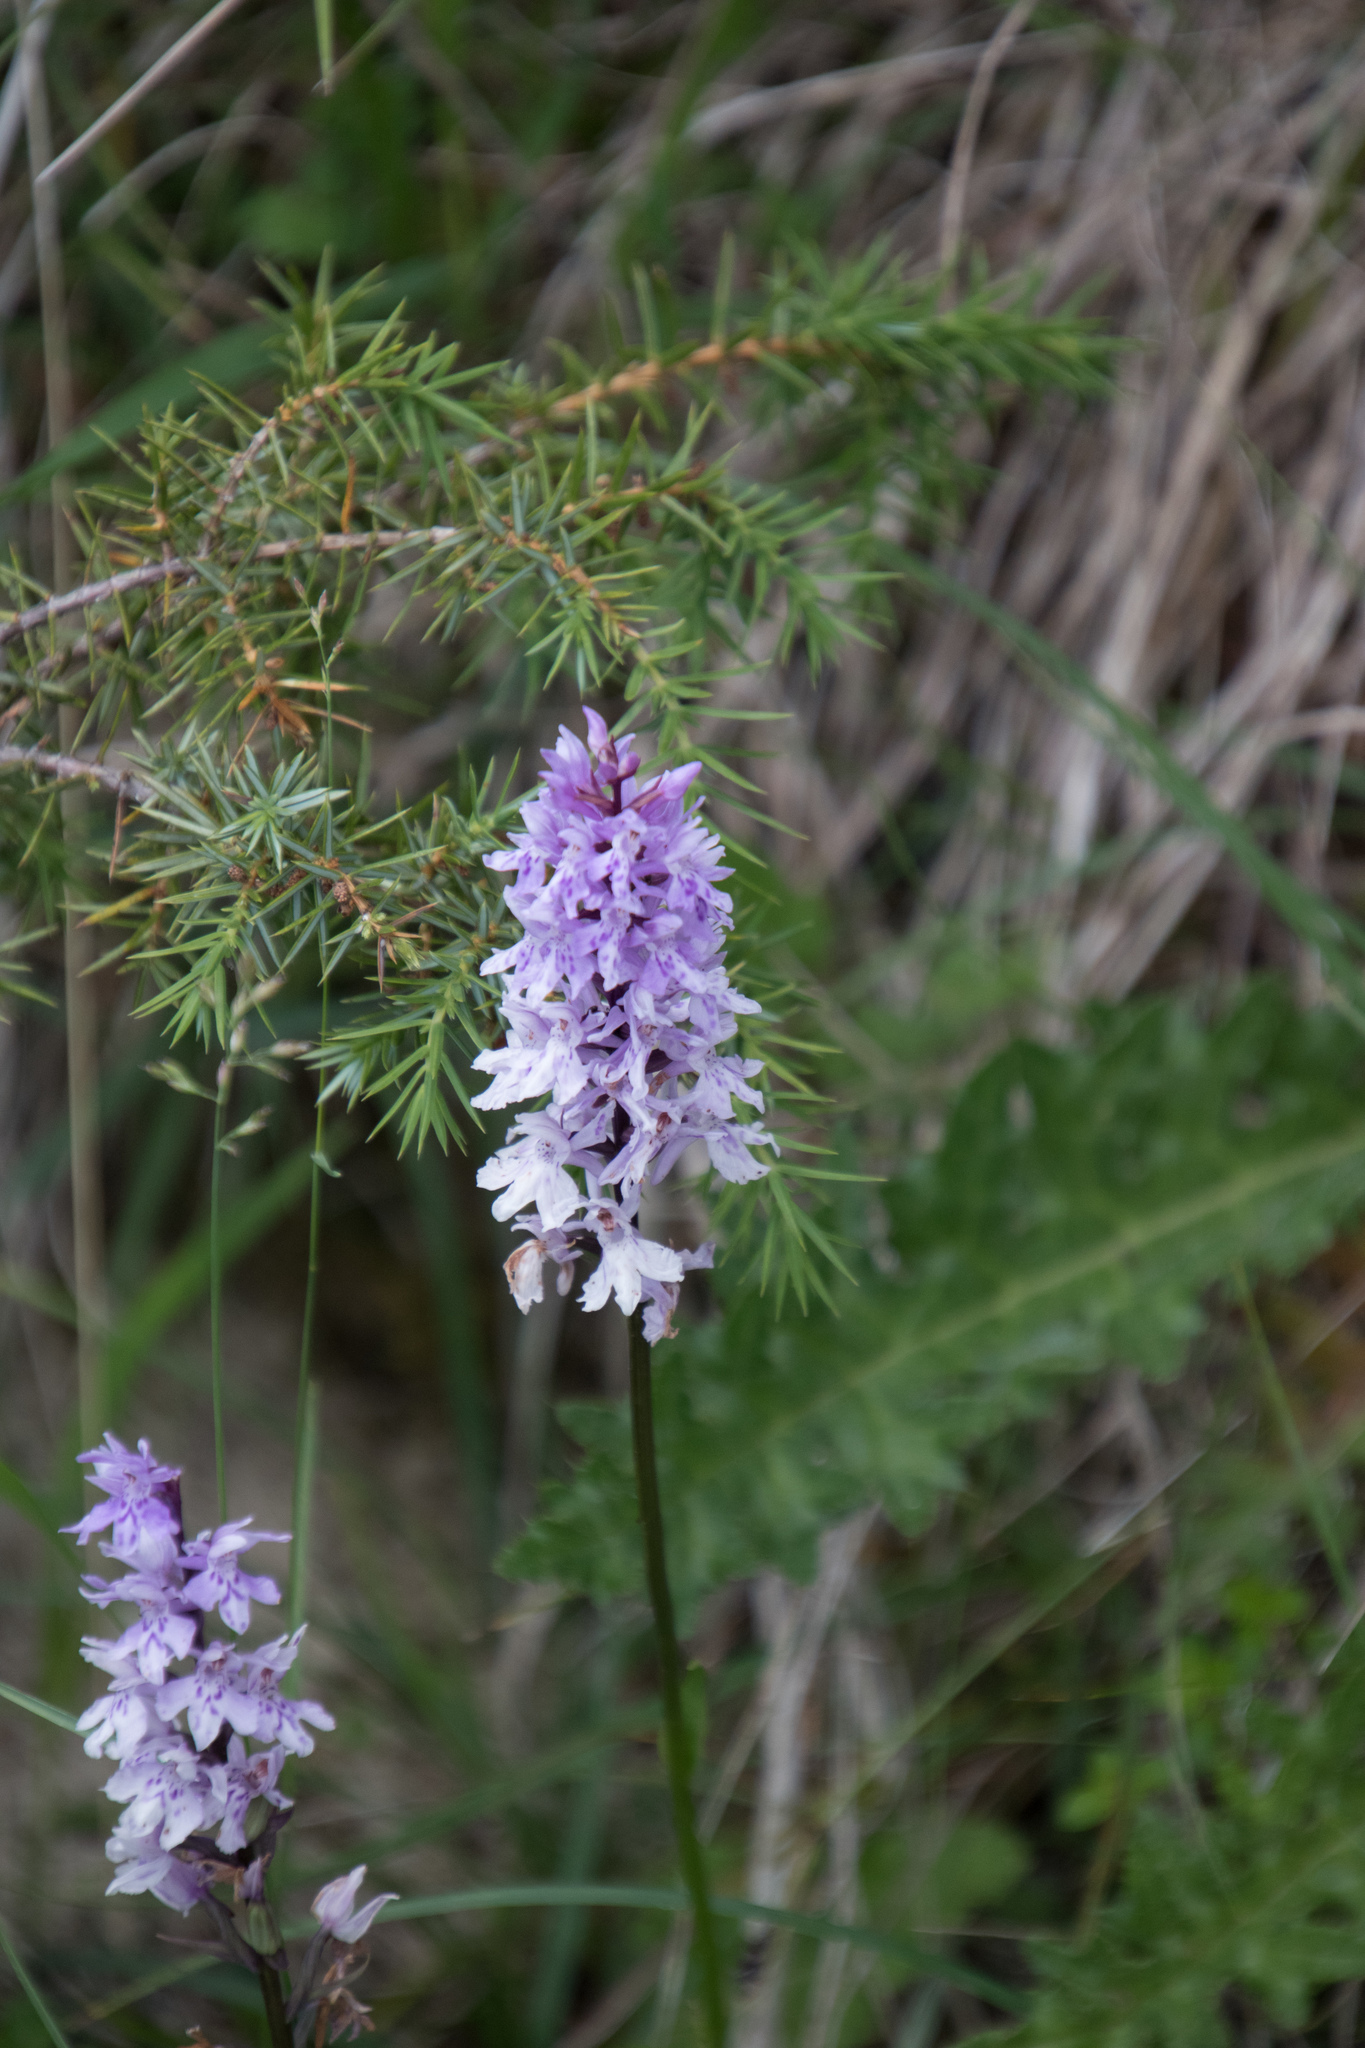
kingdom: Plantae
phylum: Tracheophyta
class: Liliopsida
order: Asparagales
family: Orchidaceae
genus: Dactylorhiza
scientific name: Dactylorhiza maculata
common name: Heath spotted-orchid
